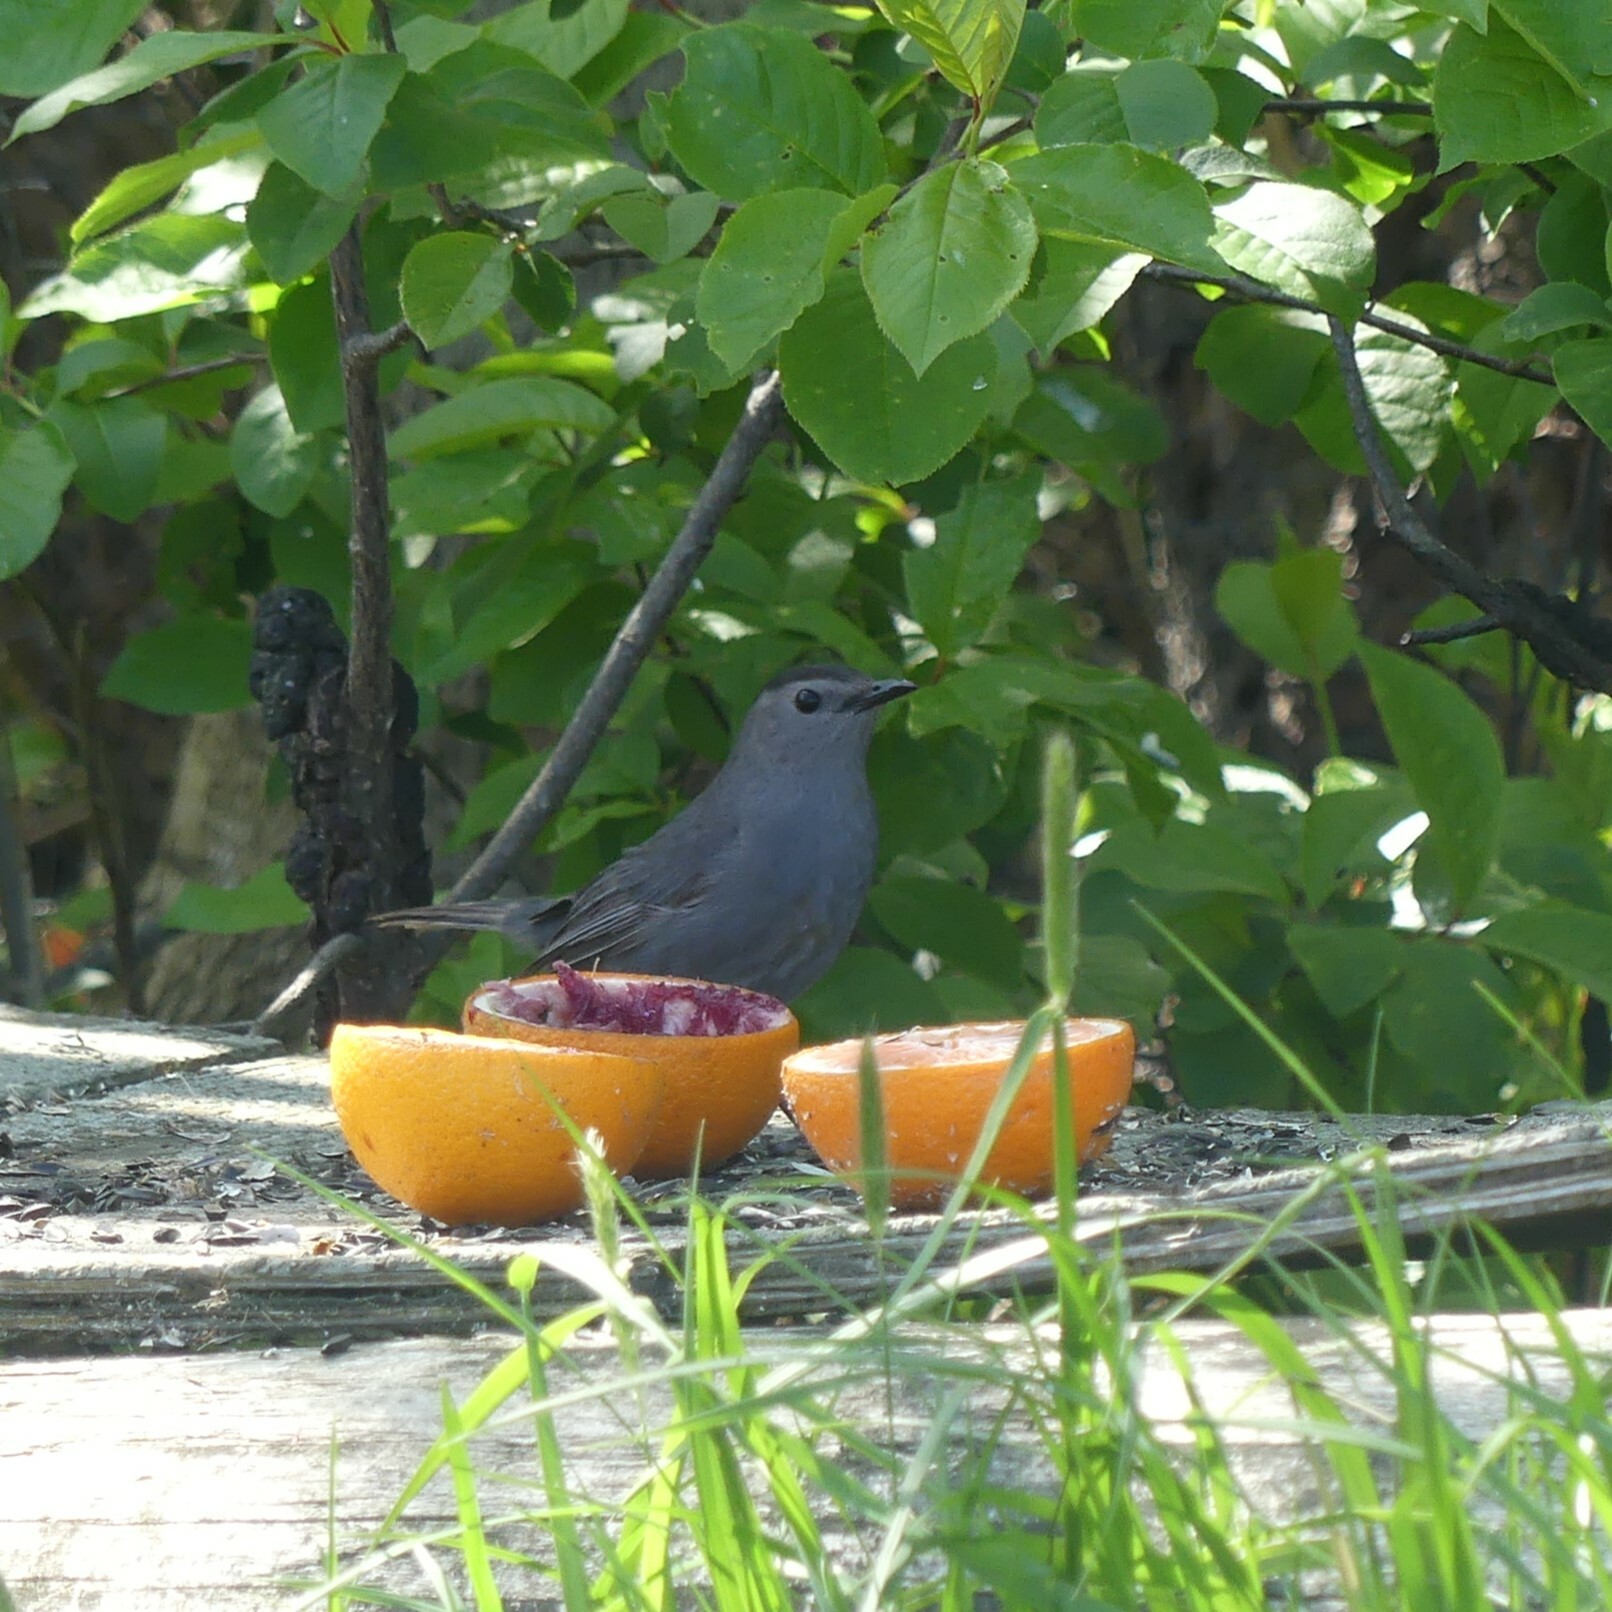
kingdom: Animalia
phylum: Chordata
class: Aves
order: Passeriformes
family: Mimidae
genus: Dumetella
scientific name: Dumetella carolinensis
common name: Gray catbird
